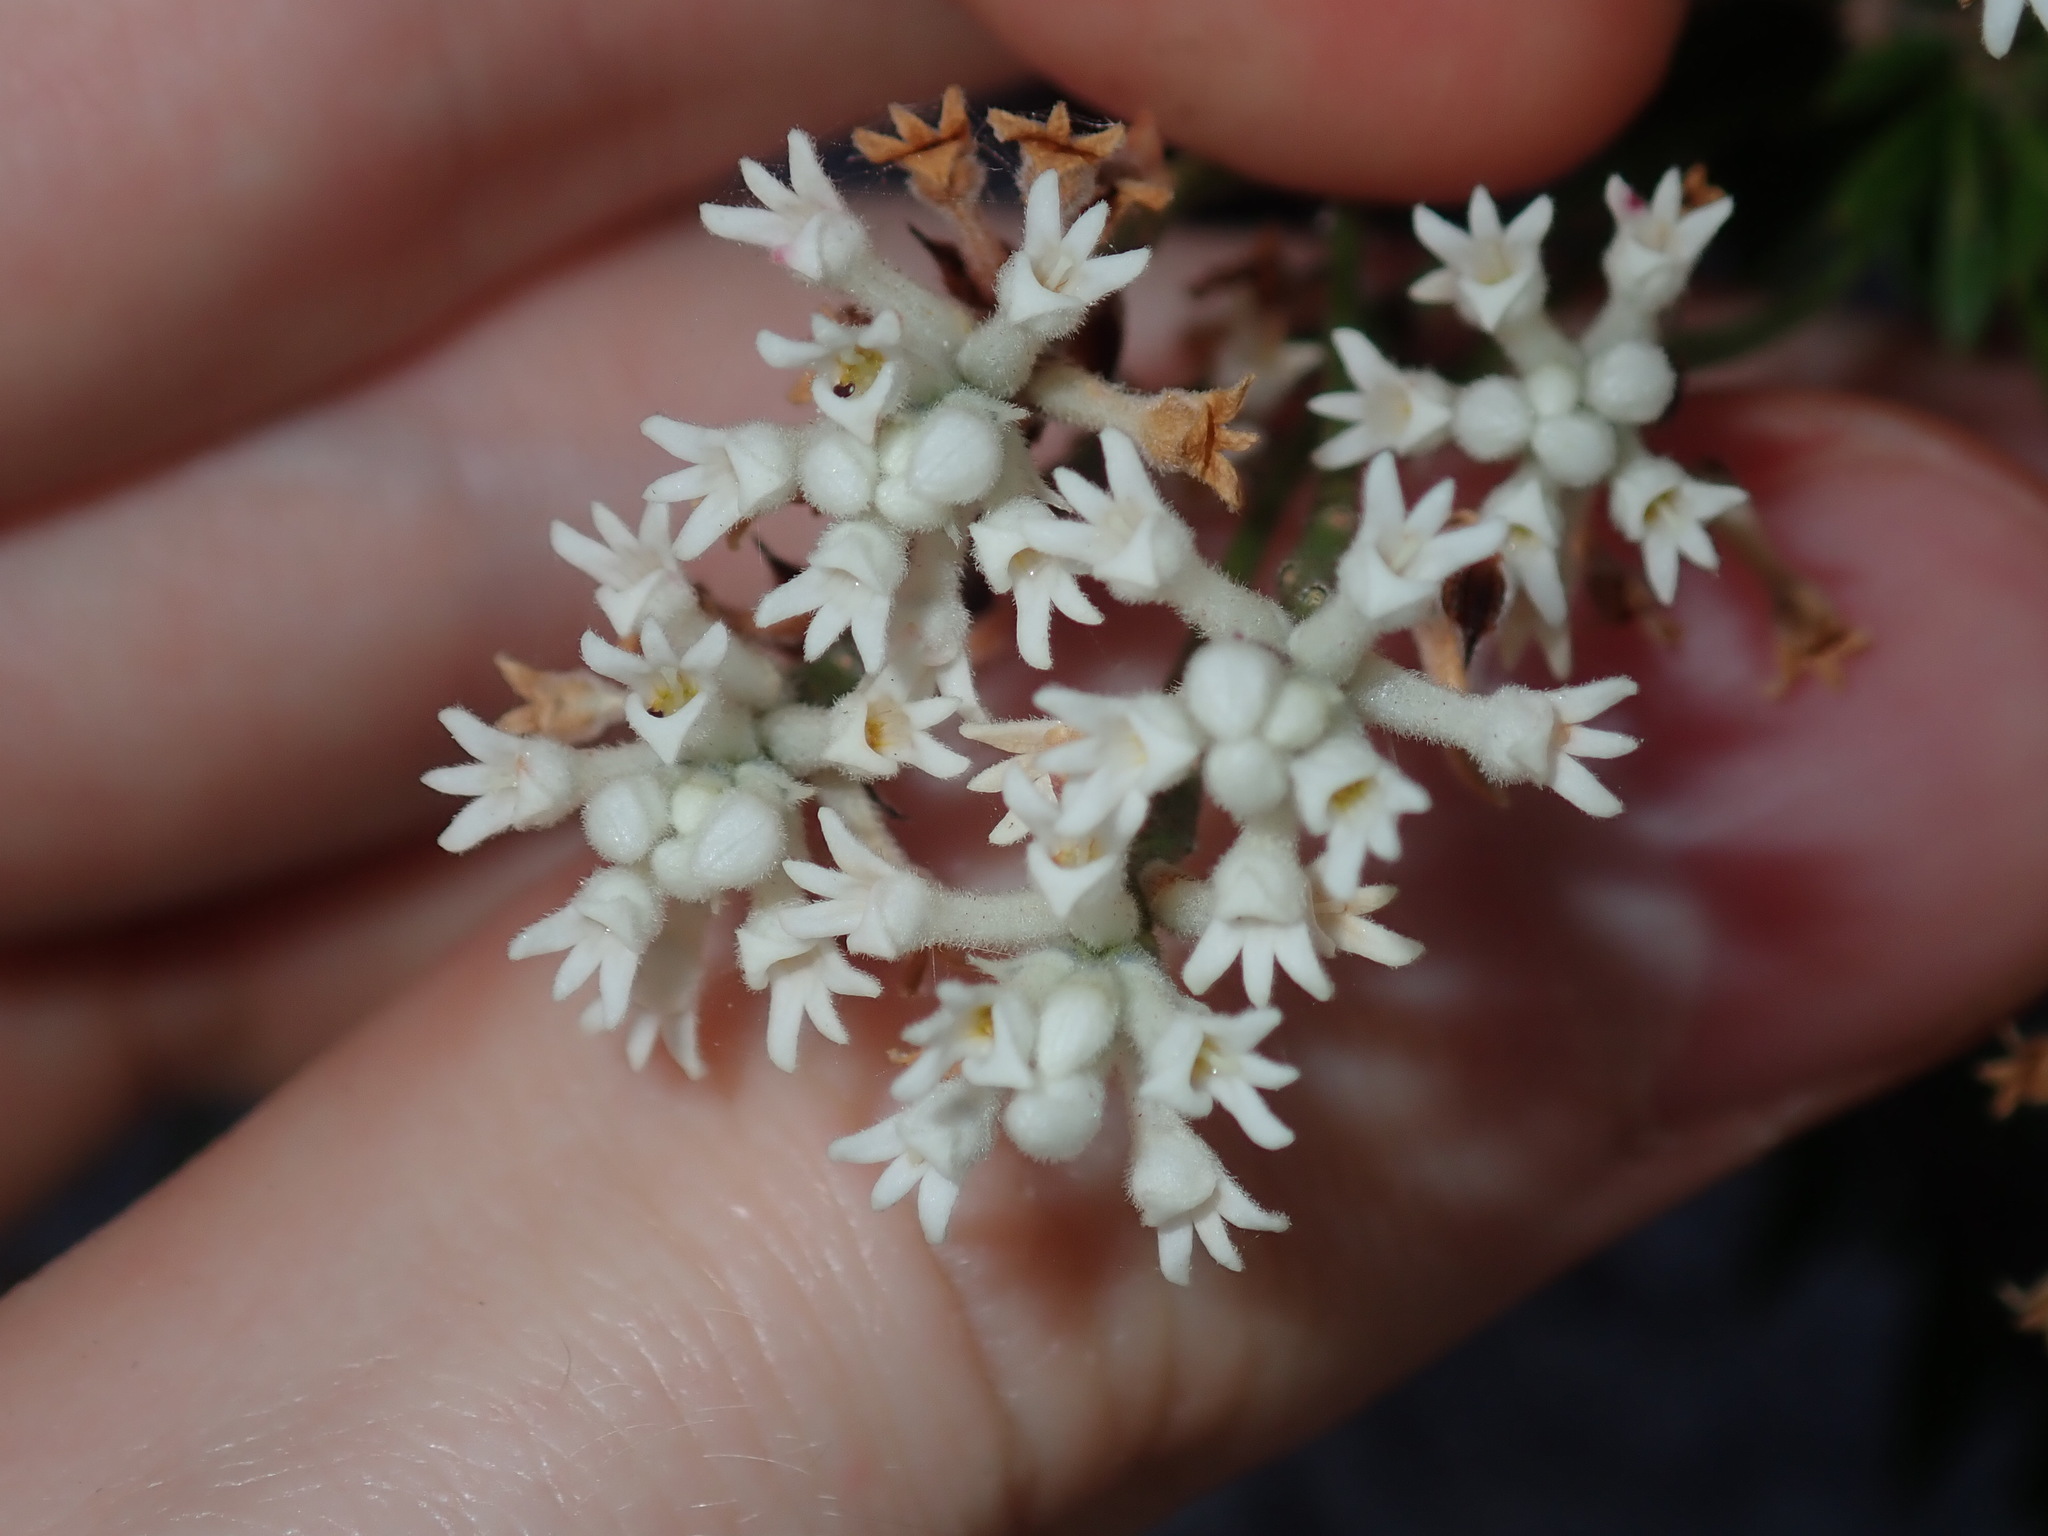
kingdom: Plantae
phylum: Tracheophyta
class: Magnoliopsida
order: Proteales
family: Proteaceae
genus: Conospermum
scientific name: Conospermum taxifolium
